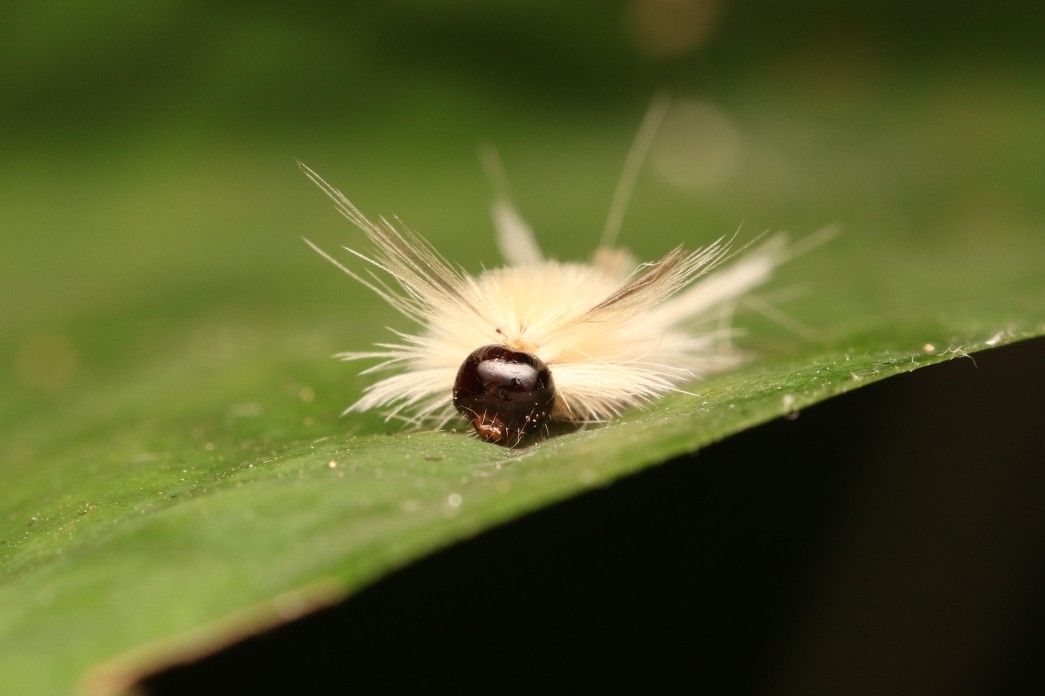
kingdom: Animalia
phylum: Arthropoda
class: Insecta
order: Lepidoptera
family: Erebidae
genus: Halysidota
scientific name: Halysidota tessellaris
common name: Banded tussock moth
